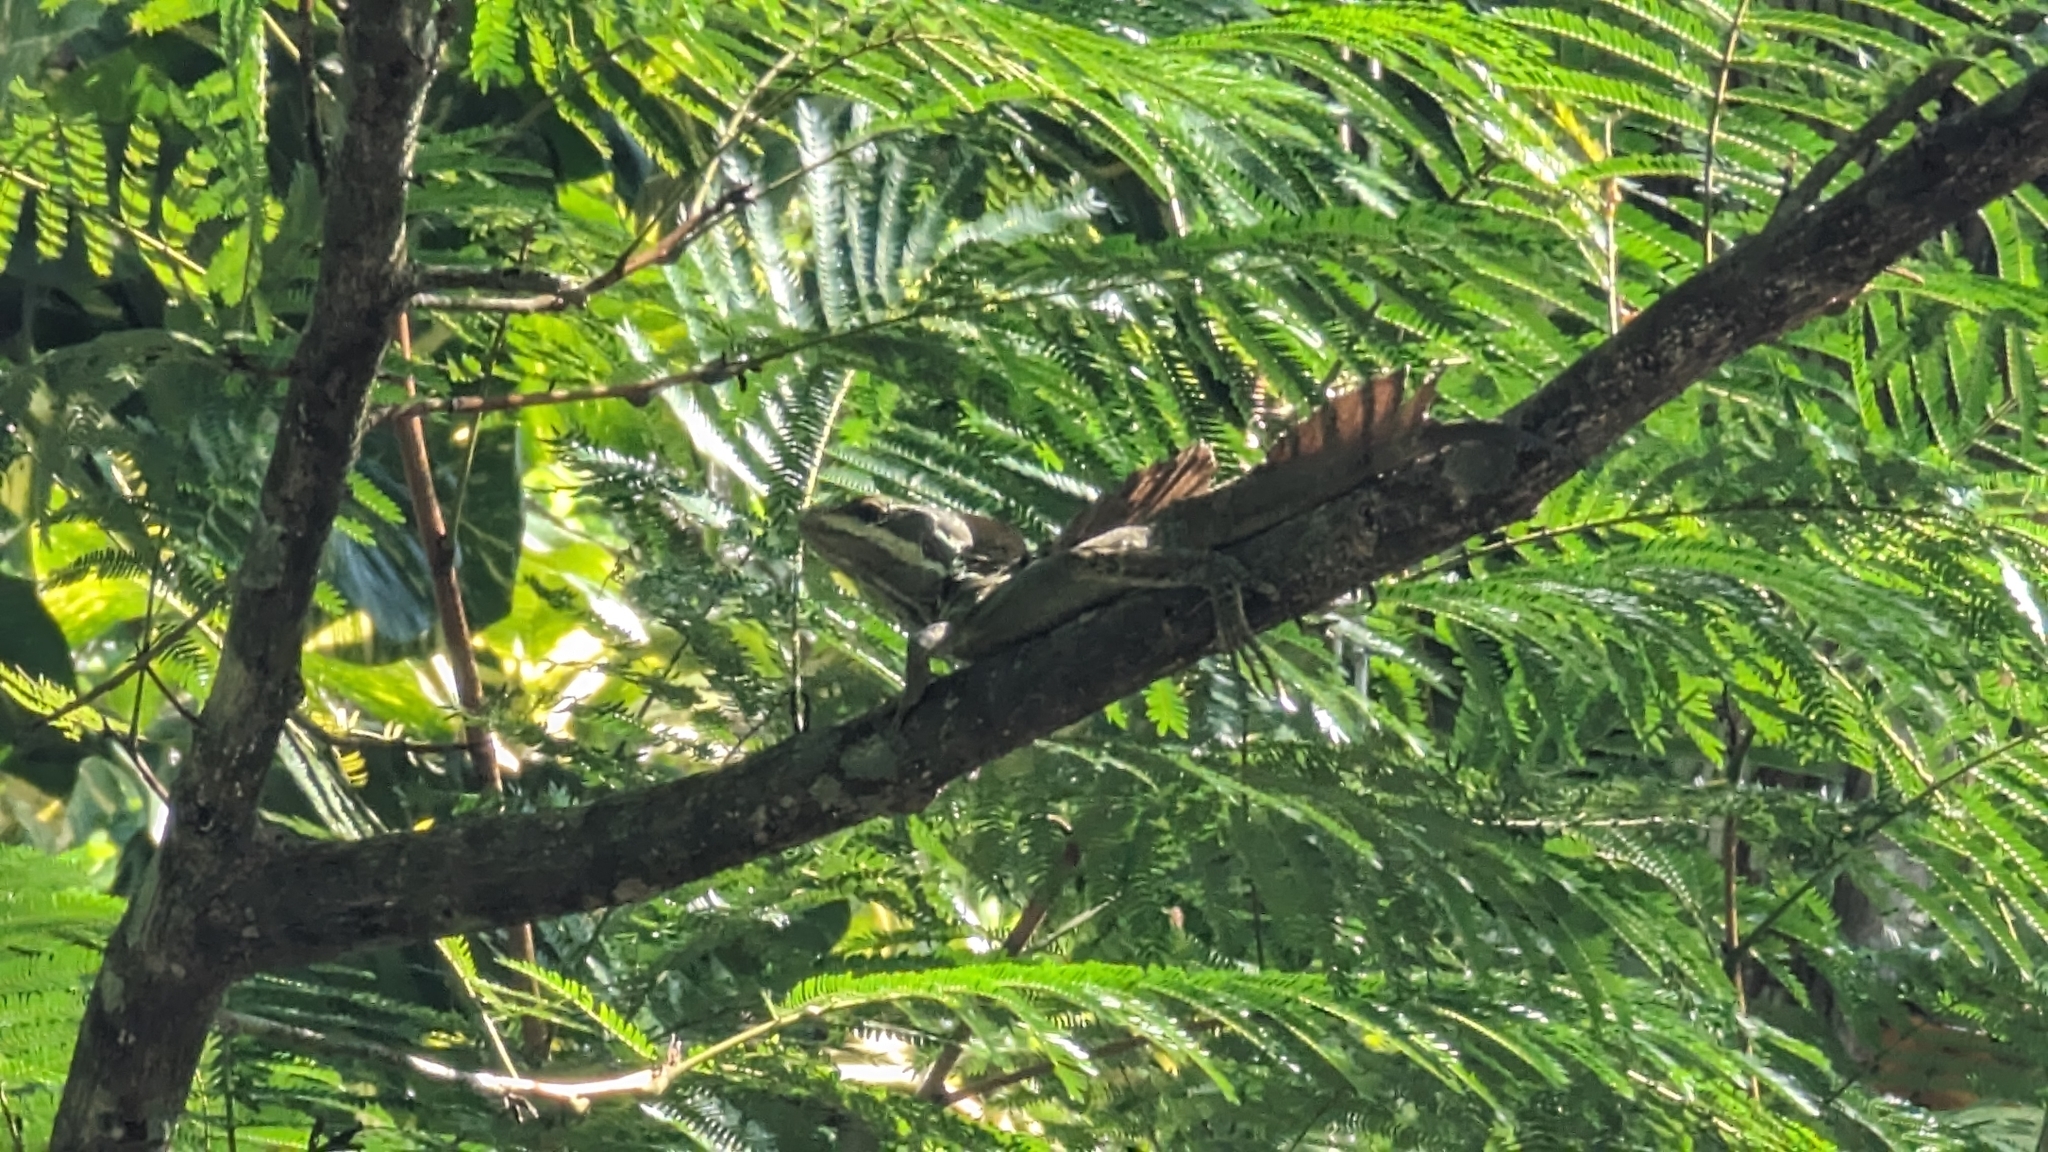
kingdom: Animalia
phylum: Chordata
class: Squamata
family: Corytophanidae
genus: Basiliscus
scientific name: Basiliscus basiliscus
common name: Common basilisk
